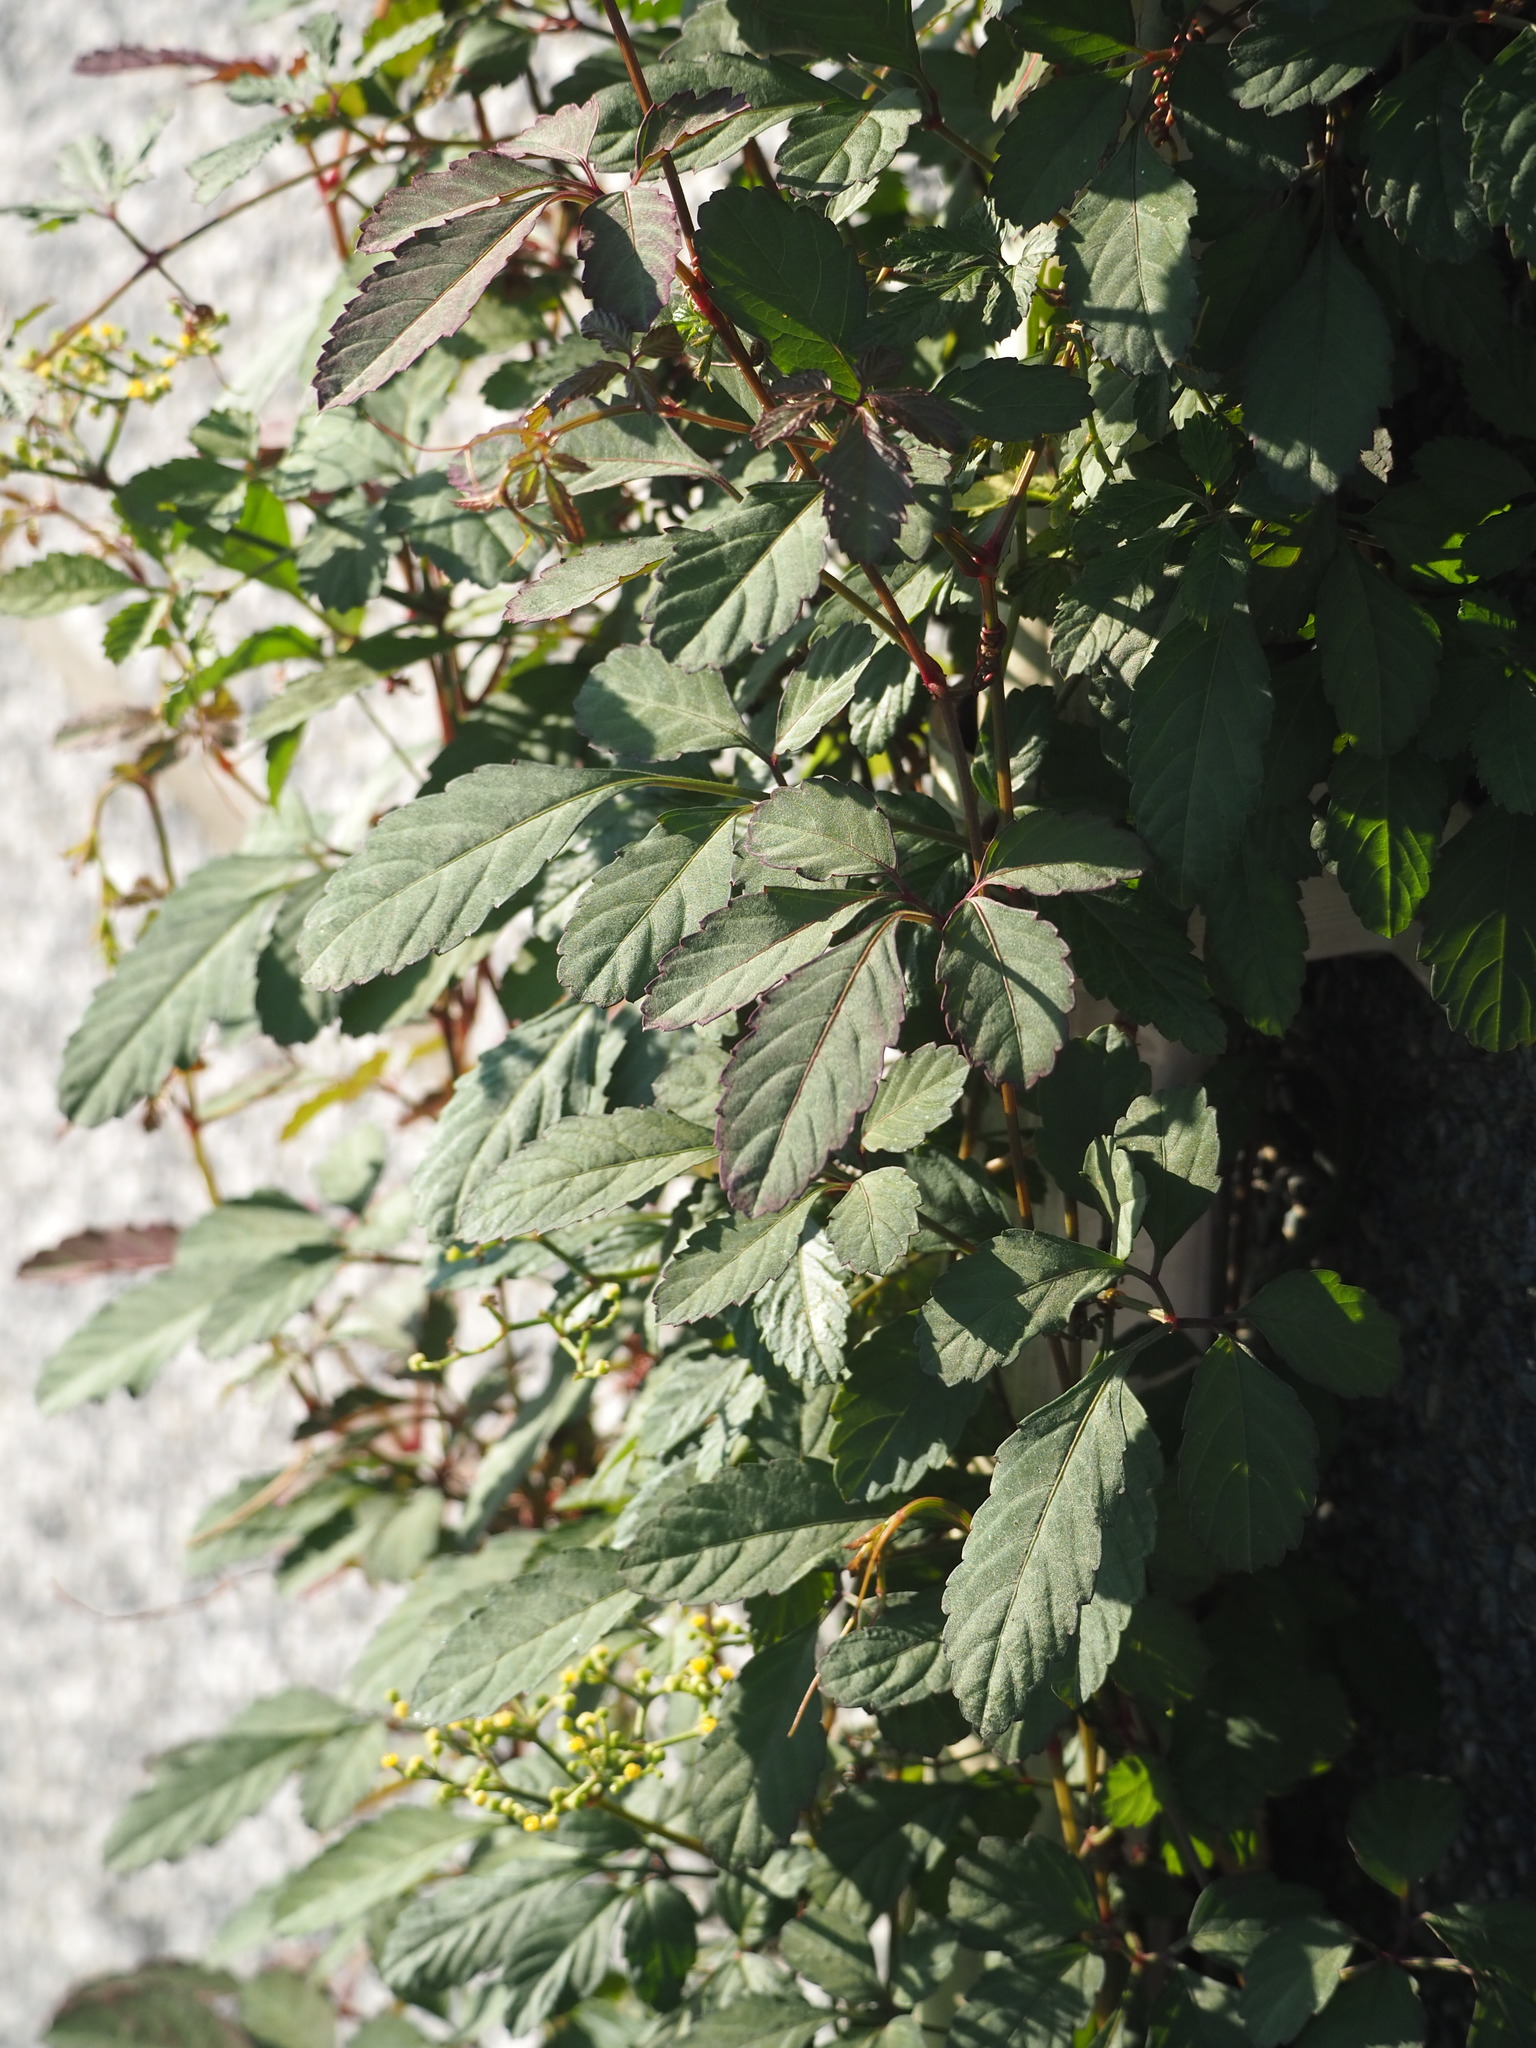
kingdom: Plantae
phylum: Tracheophyta
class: Magnoliopsida
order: Vitales
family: Vitaceae
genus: Causonis
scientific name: Causonis japonica
